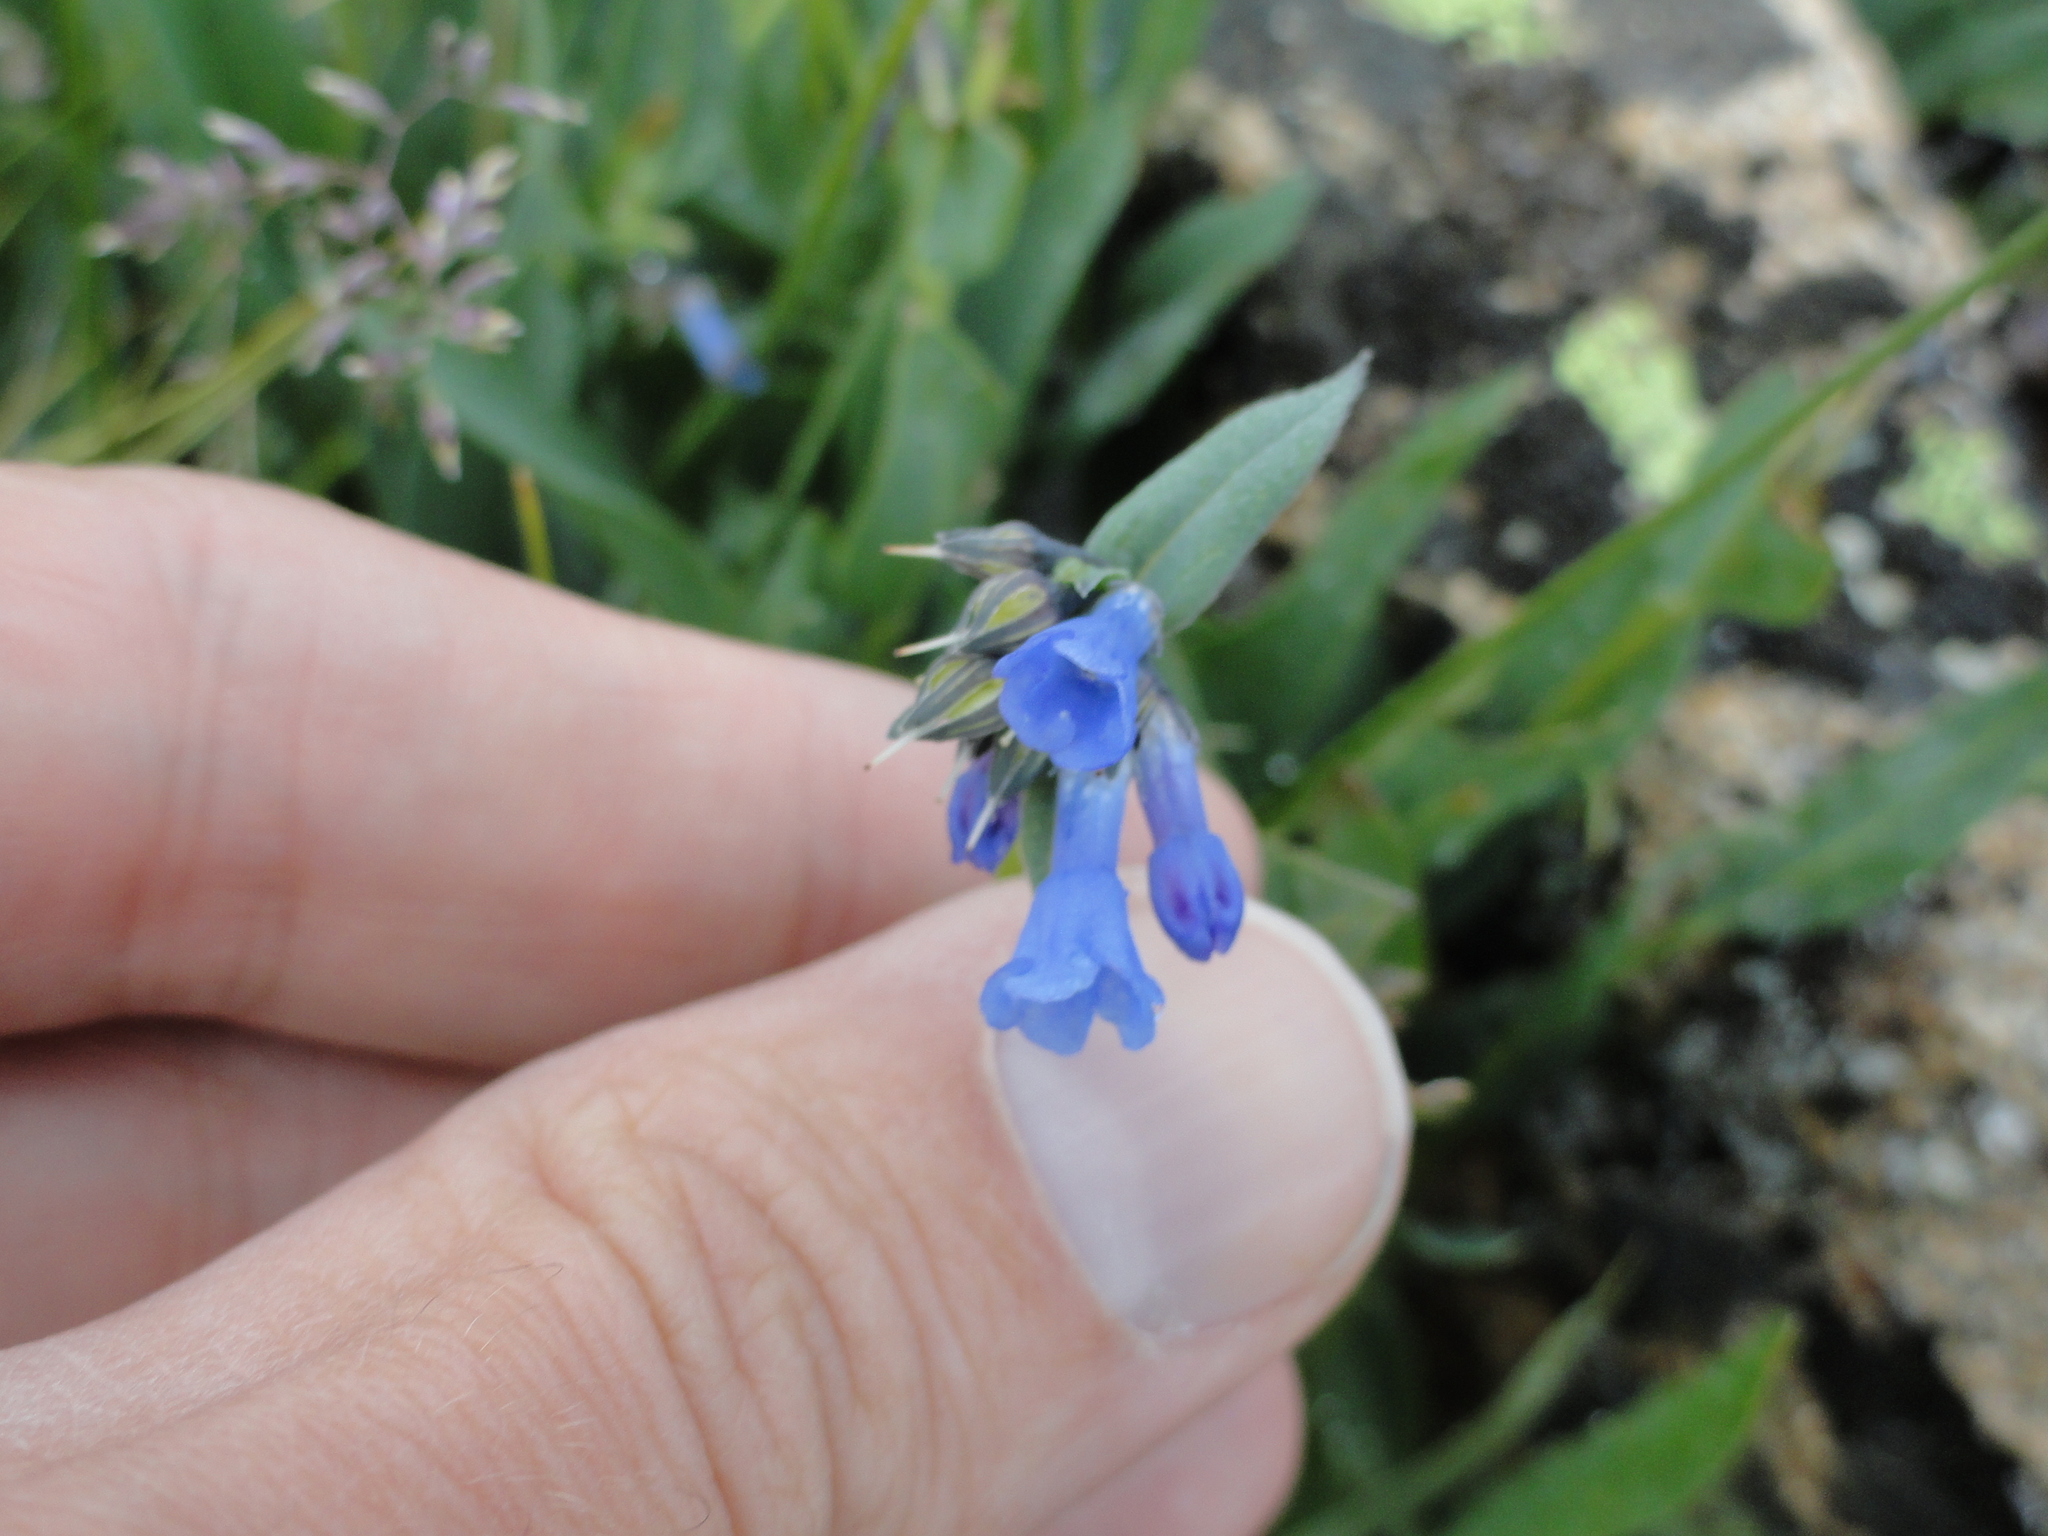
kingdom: Plantae
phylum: Tracheophyta
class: Magnoliopsida
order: Boraginales
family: Boraginaceae
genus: Mertensia
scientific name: Mertensia ciliata
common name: Tall chiming-bells
